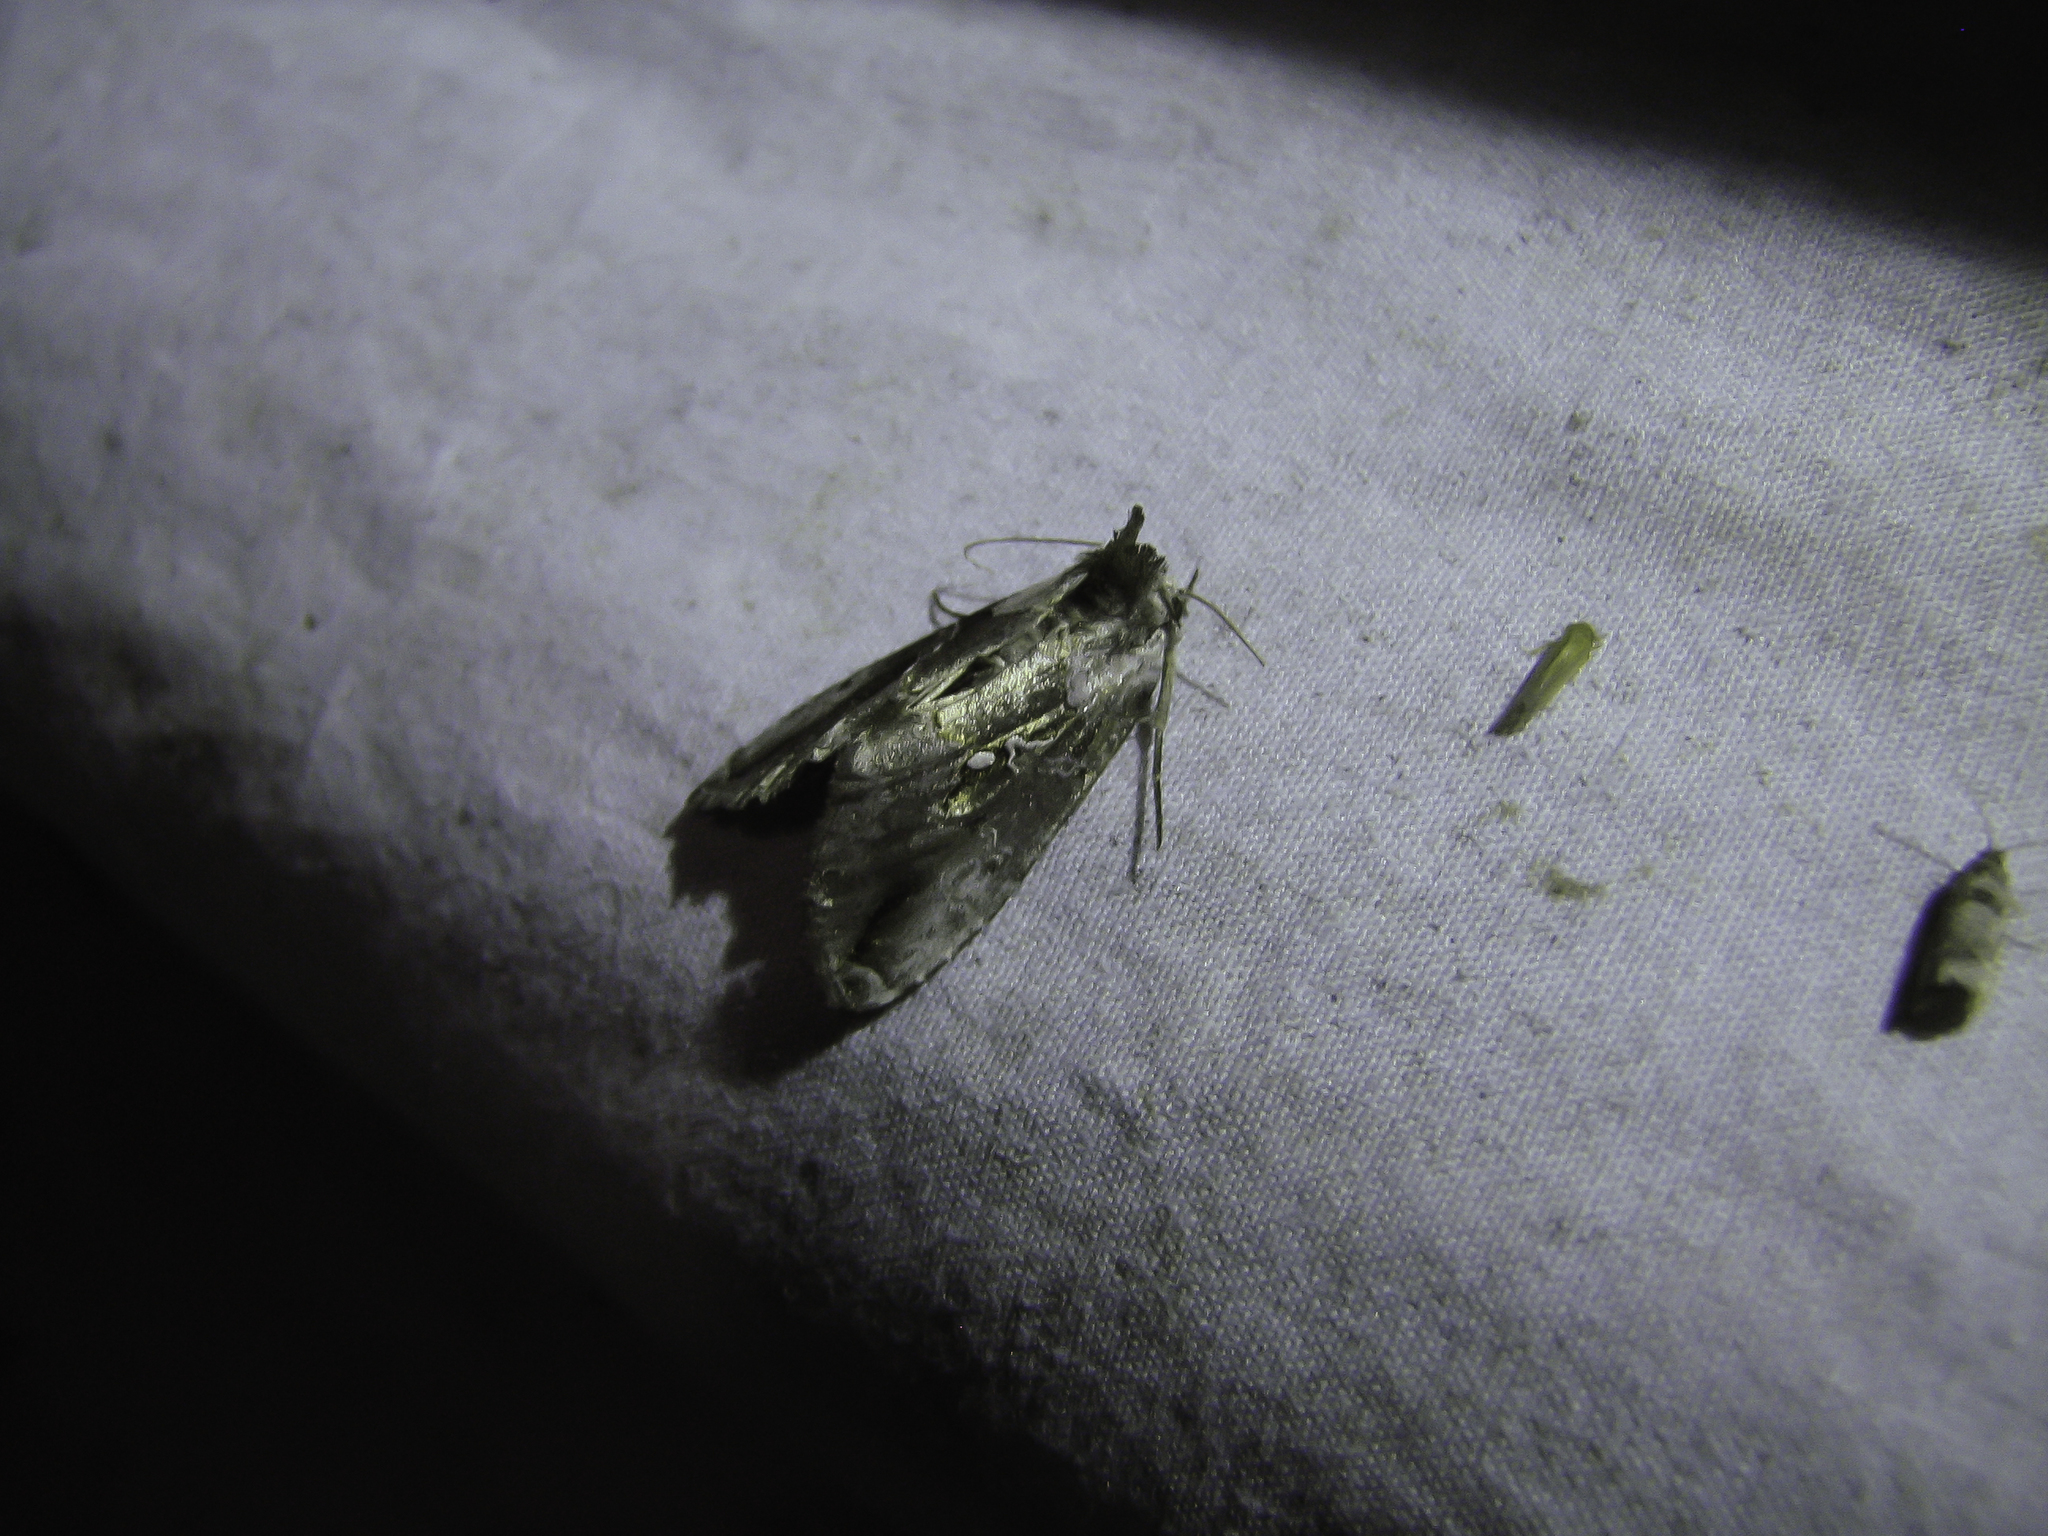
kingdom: Animalia
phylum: Arthropoda
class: Insecta
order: Lepidoptera
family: Noctuidae
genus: Eosphoropteryx
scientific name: Eosphoropteryx thyatyroides
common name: Pinkpatched looper moth
